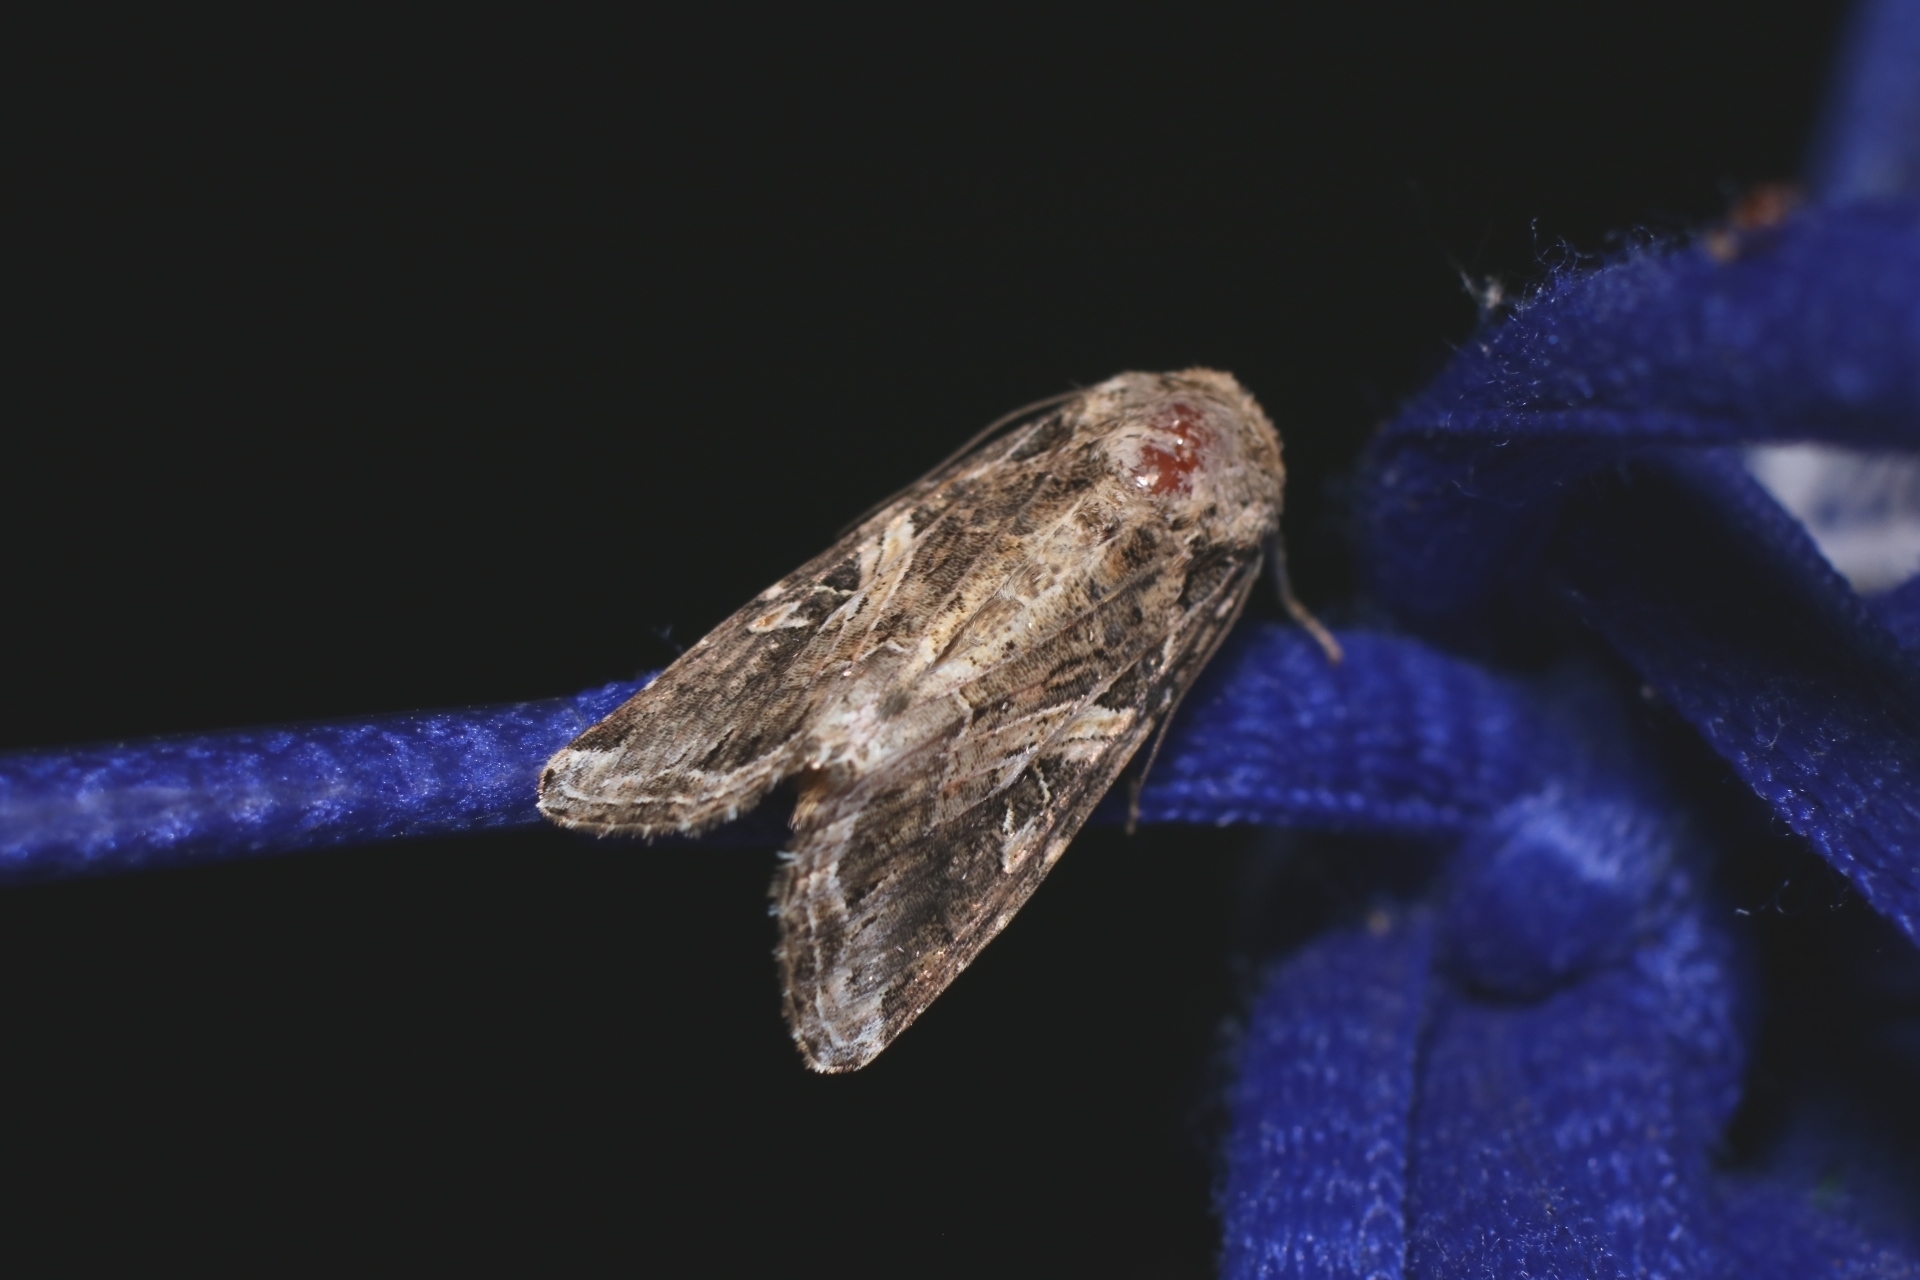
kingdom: Animalia
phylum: Arthropoda
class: Insecta
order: Lepidoptera
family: Noctuidae
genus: Spodoptera
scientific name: Spodoptera ornithogalli
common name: Yellow-striped armyworm
